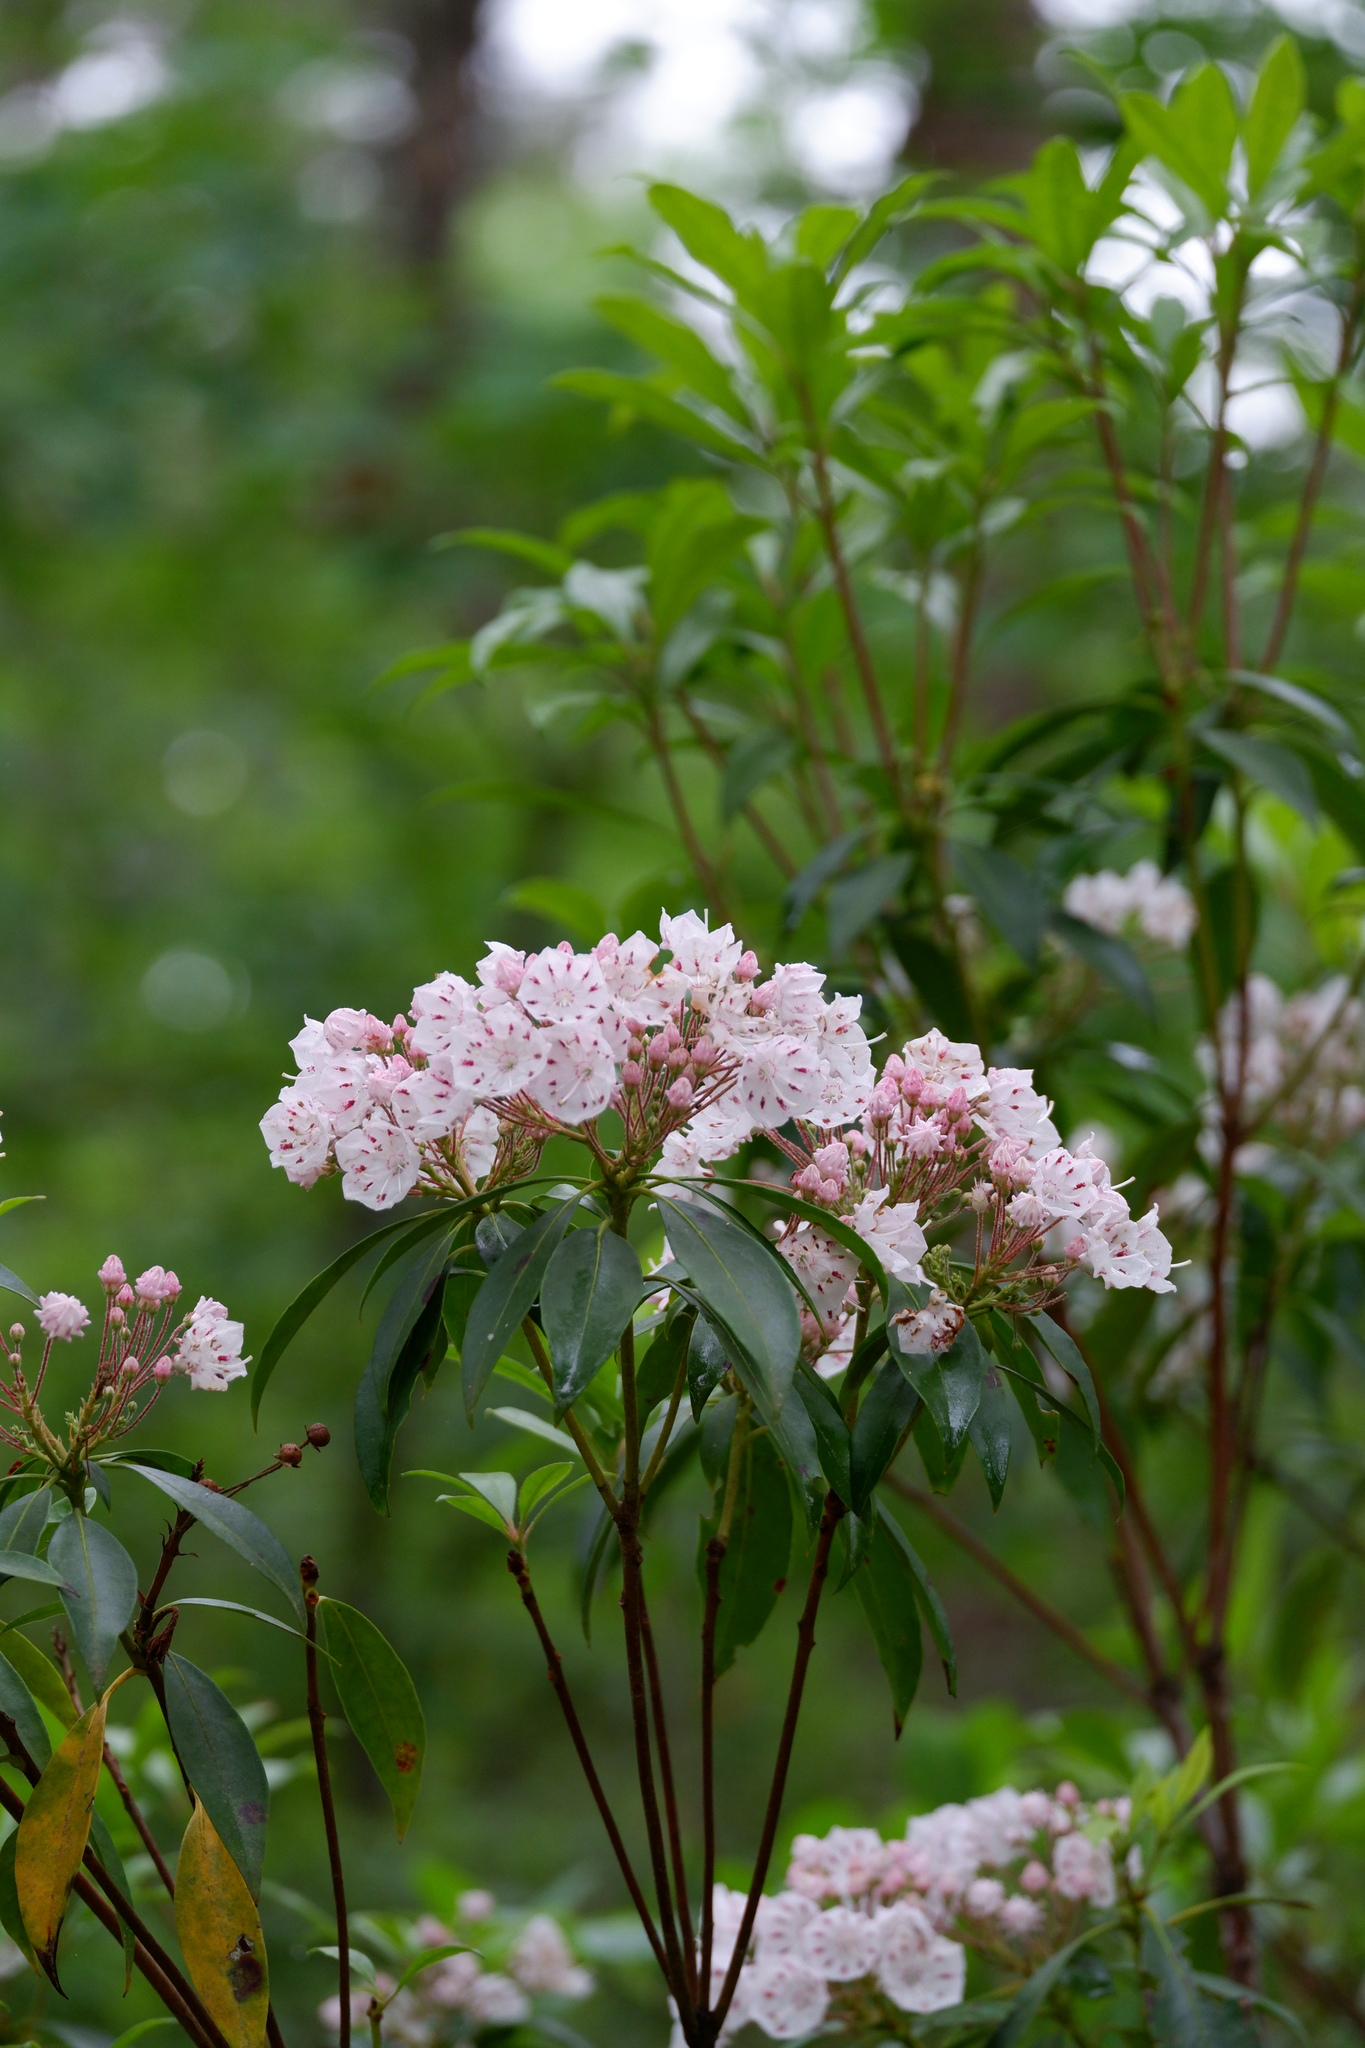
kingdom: Plantae
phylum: Tracheophyta
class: Magnoliopsida
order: Ericales
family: Ericaceae
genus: Kalmia
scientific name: Kalmia latifolia
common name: Mountain-laurel
